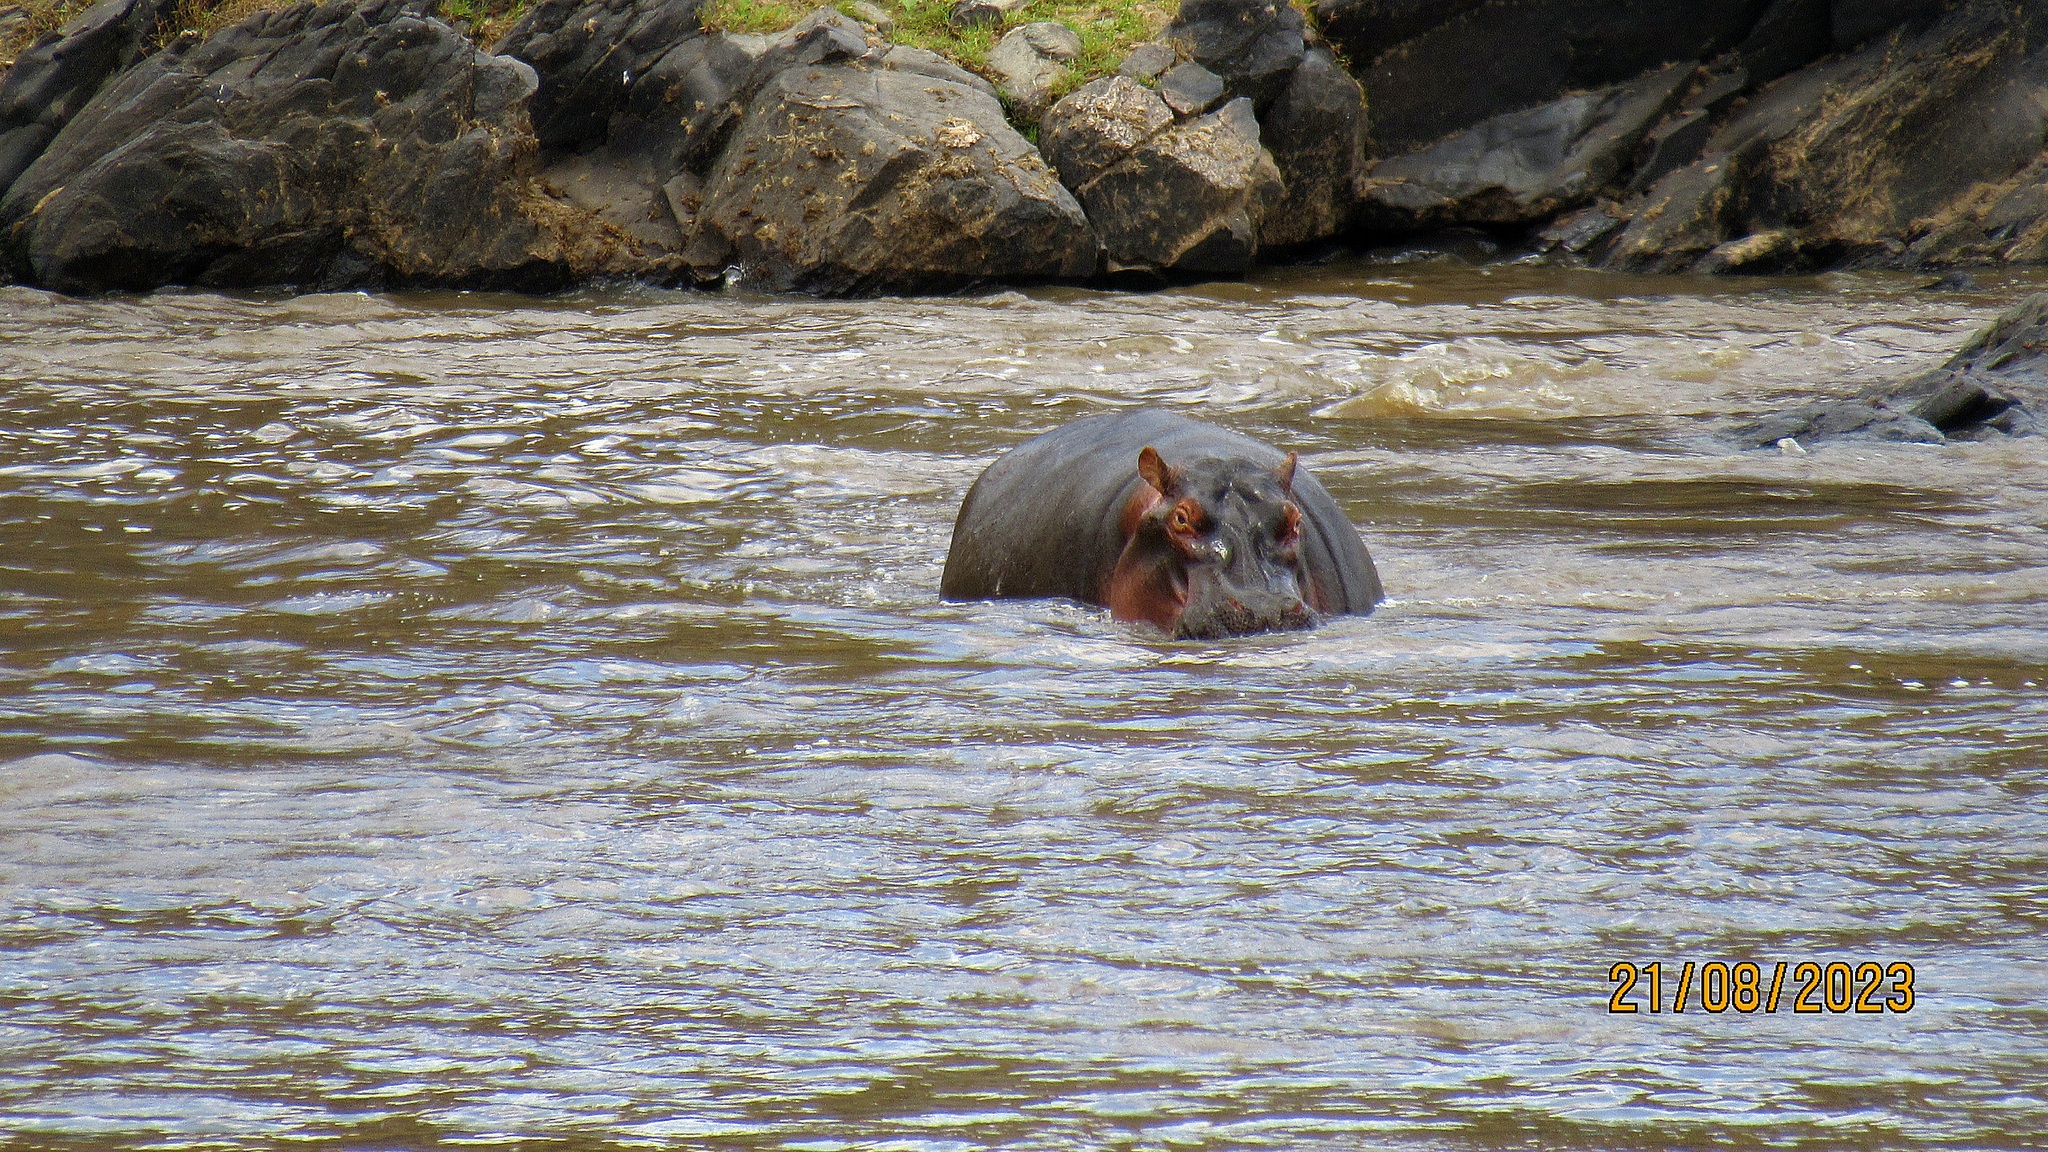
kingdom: Animalia
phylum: Chordata
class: Mammalia
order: Artiodactyla
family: Hippopotamidae
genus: Hippopotamus
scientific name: Hippopotamus amphibius
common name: Common hippopotamus
